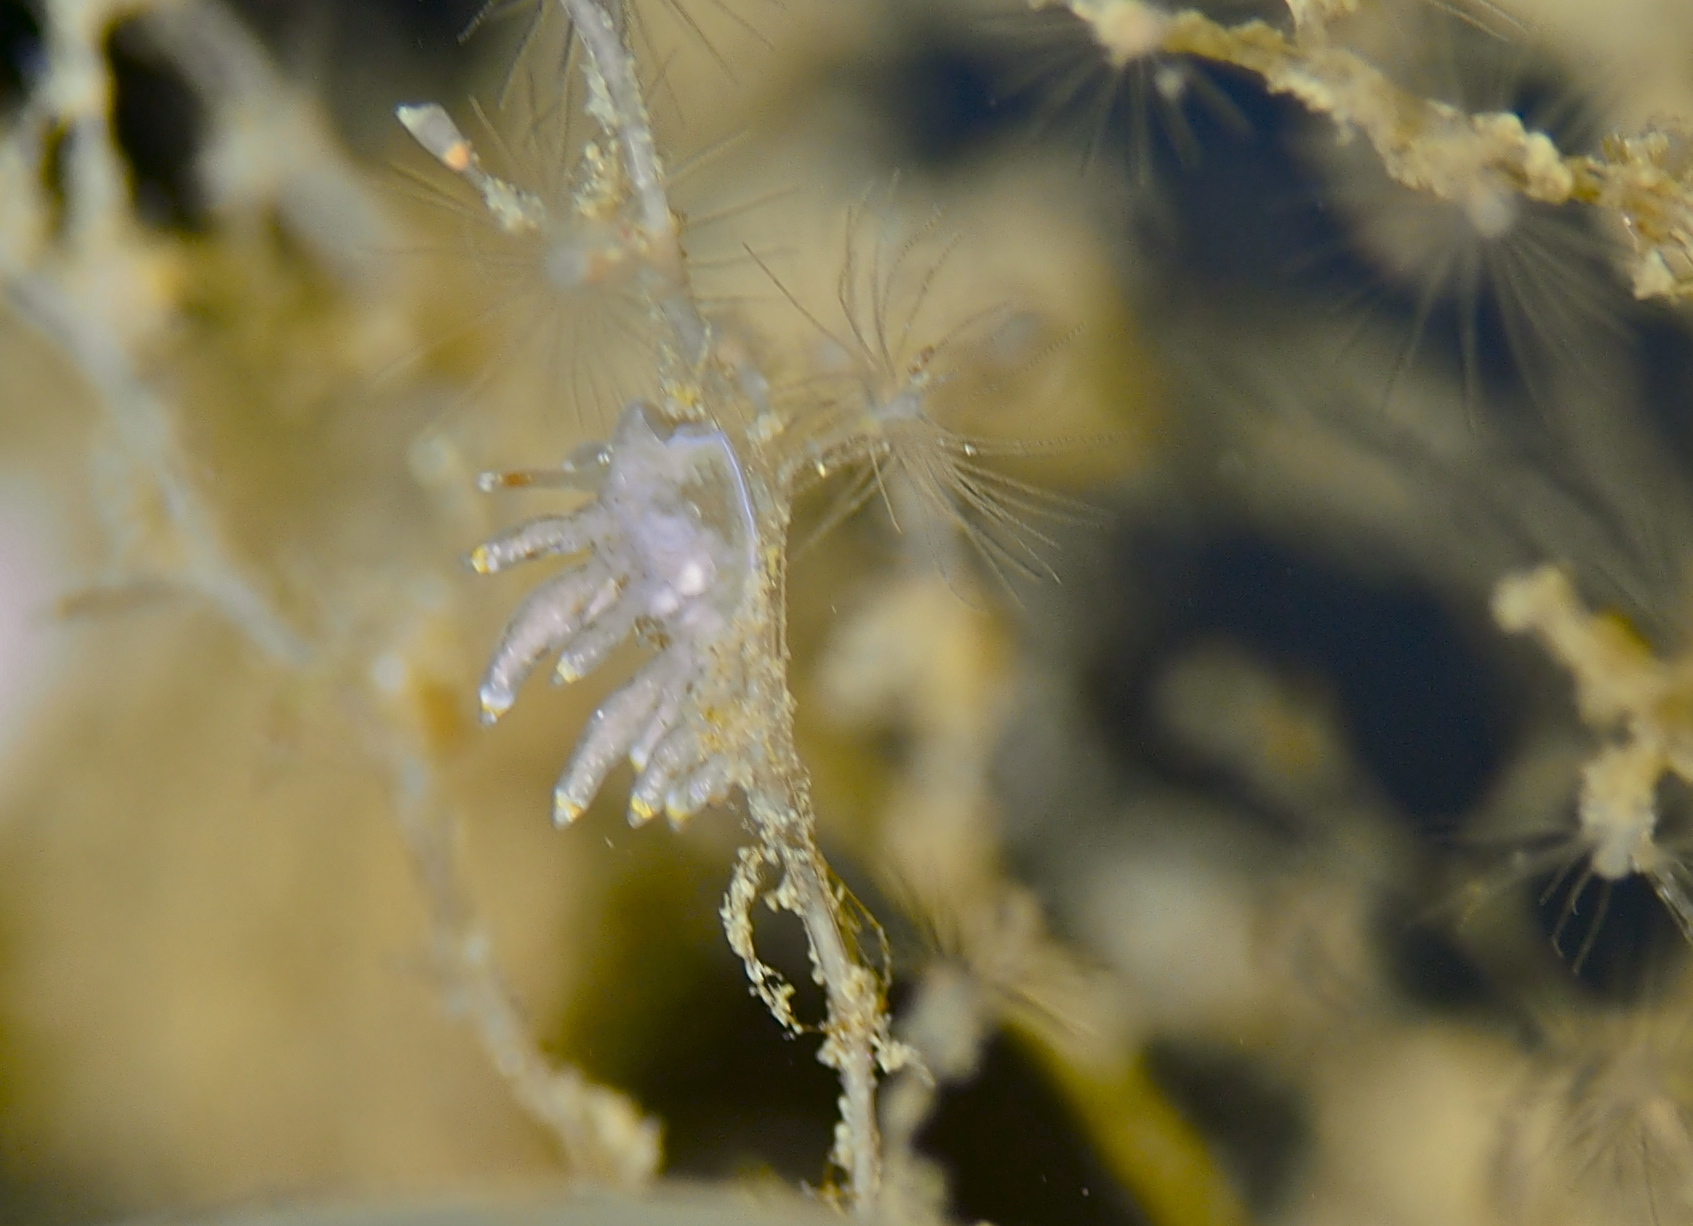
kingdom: Animalia
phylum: Mollusca
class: Gastropoda
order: Nudibranchia
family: Eubranchidae
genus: Eubranchus
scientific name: Eubranchus exiguus
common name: Balloon aeolis
